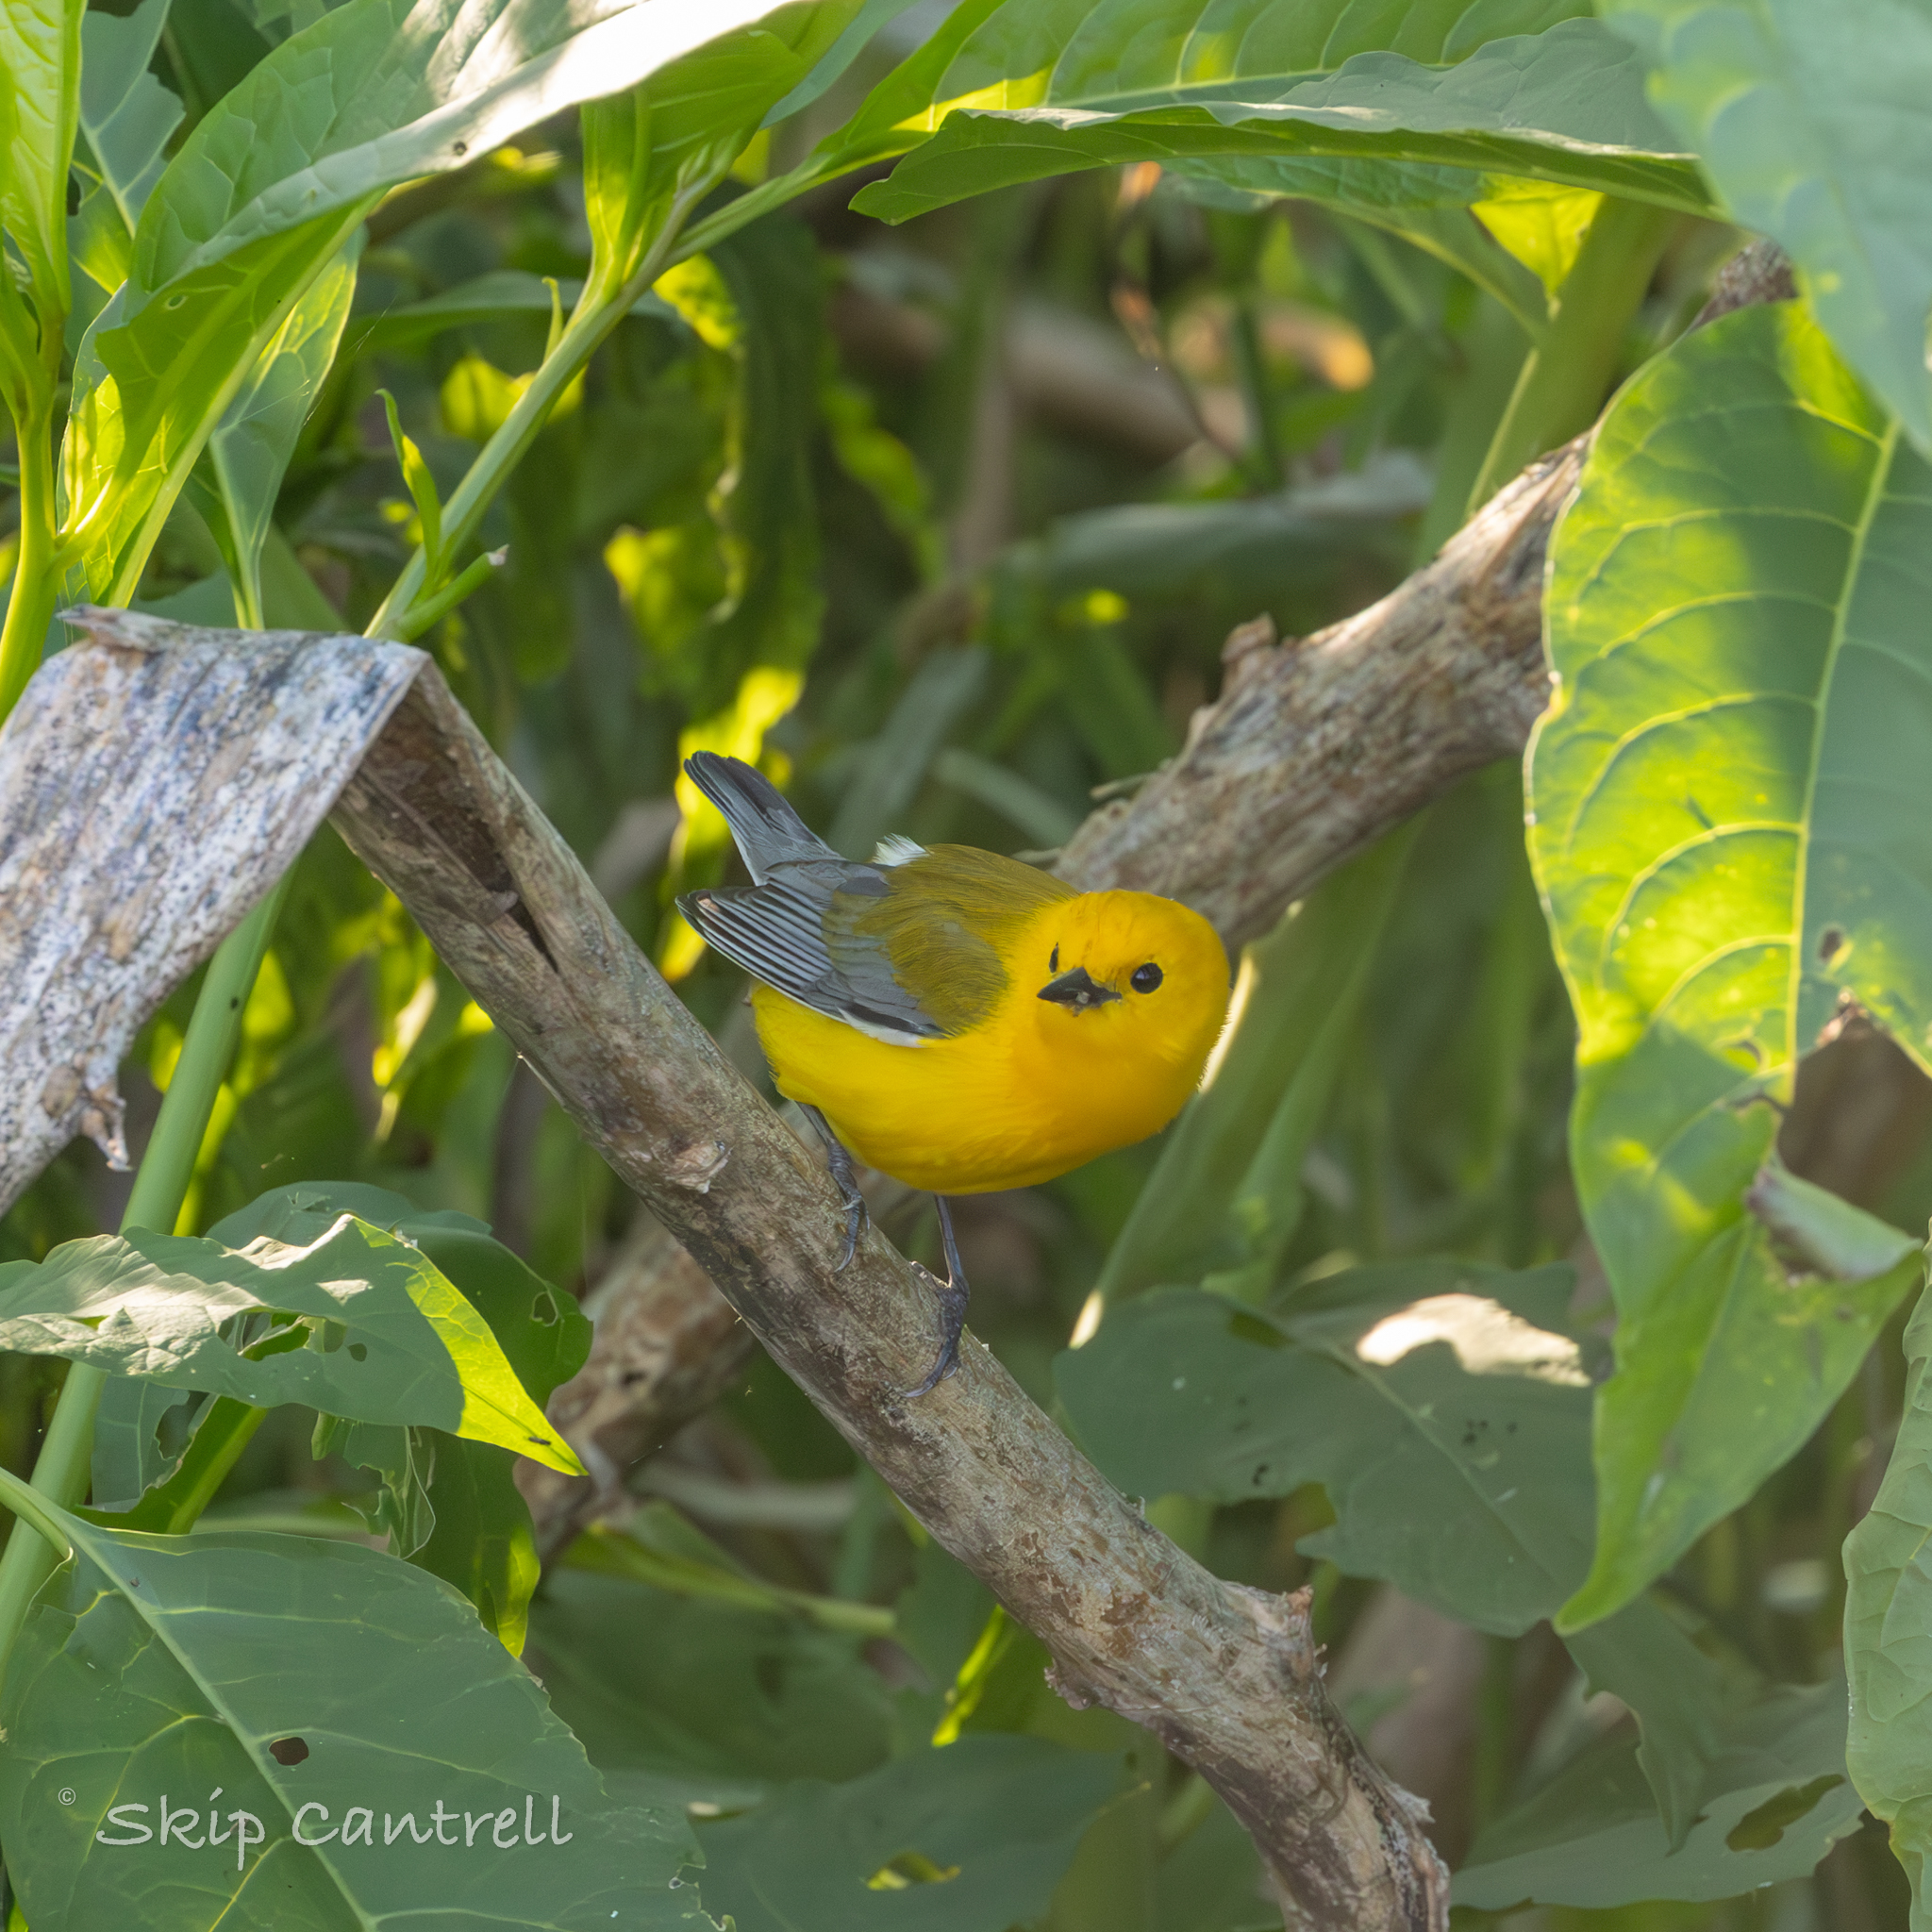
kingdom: Animalia
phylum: Chordata
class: Aves
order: Passeriformes
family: Parulidae
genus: Protonotaria
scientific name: Protonotaria citrea
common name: Prothonotary warbler
